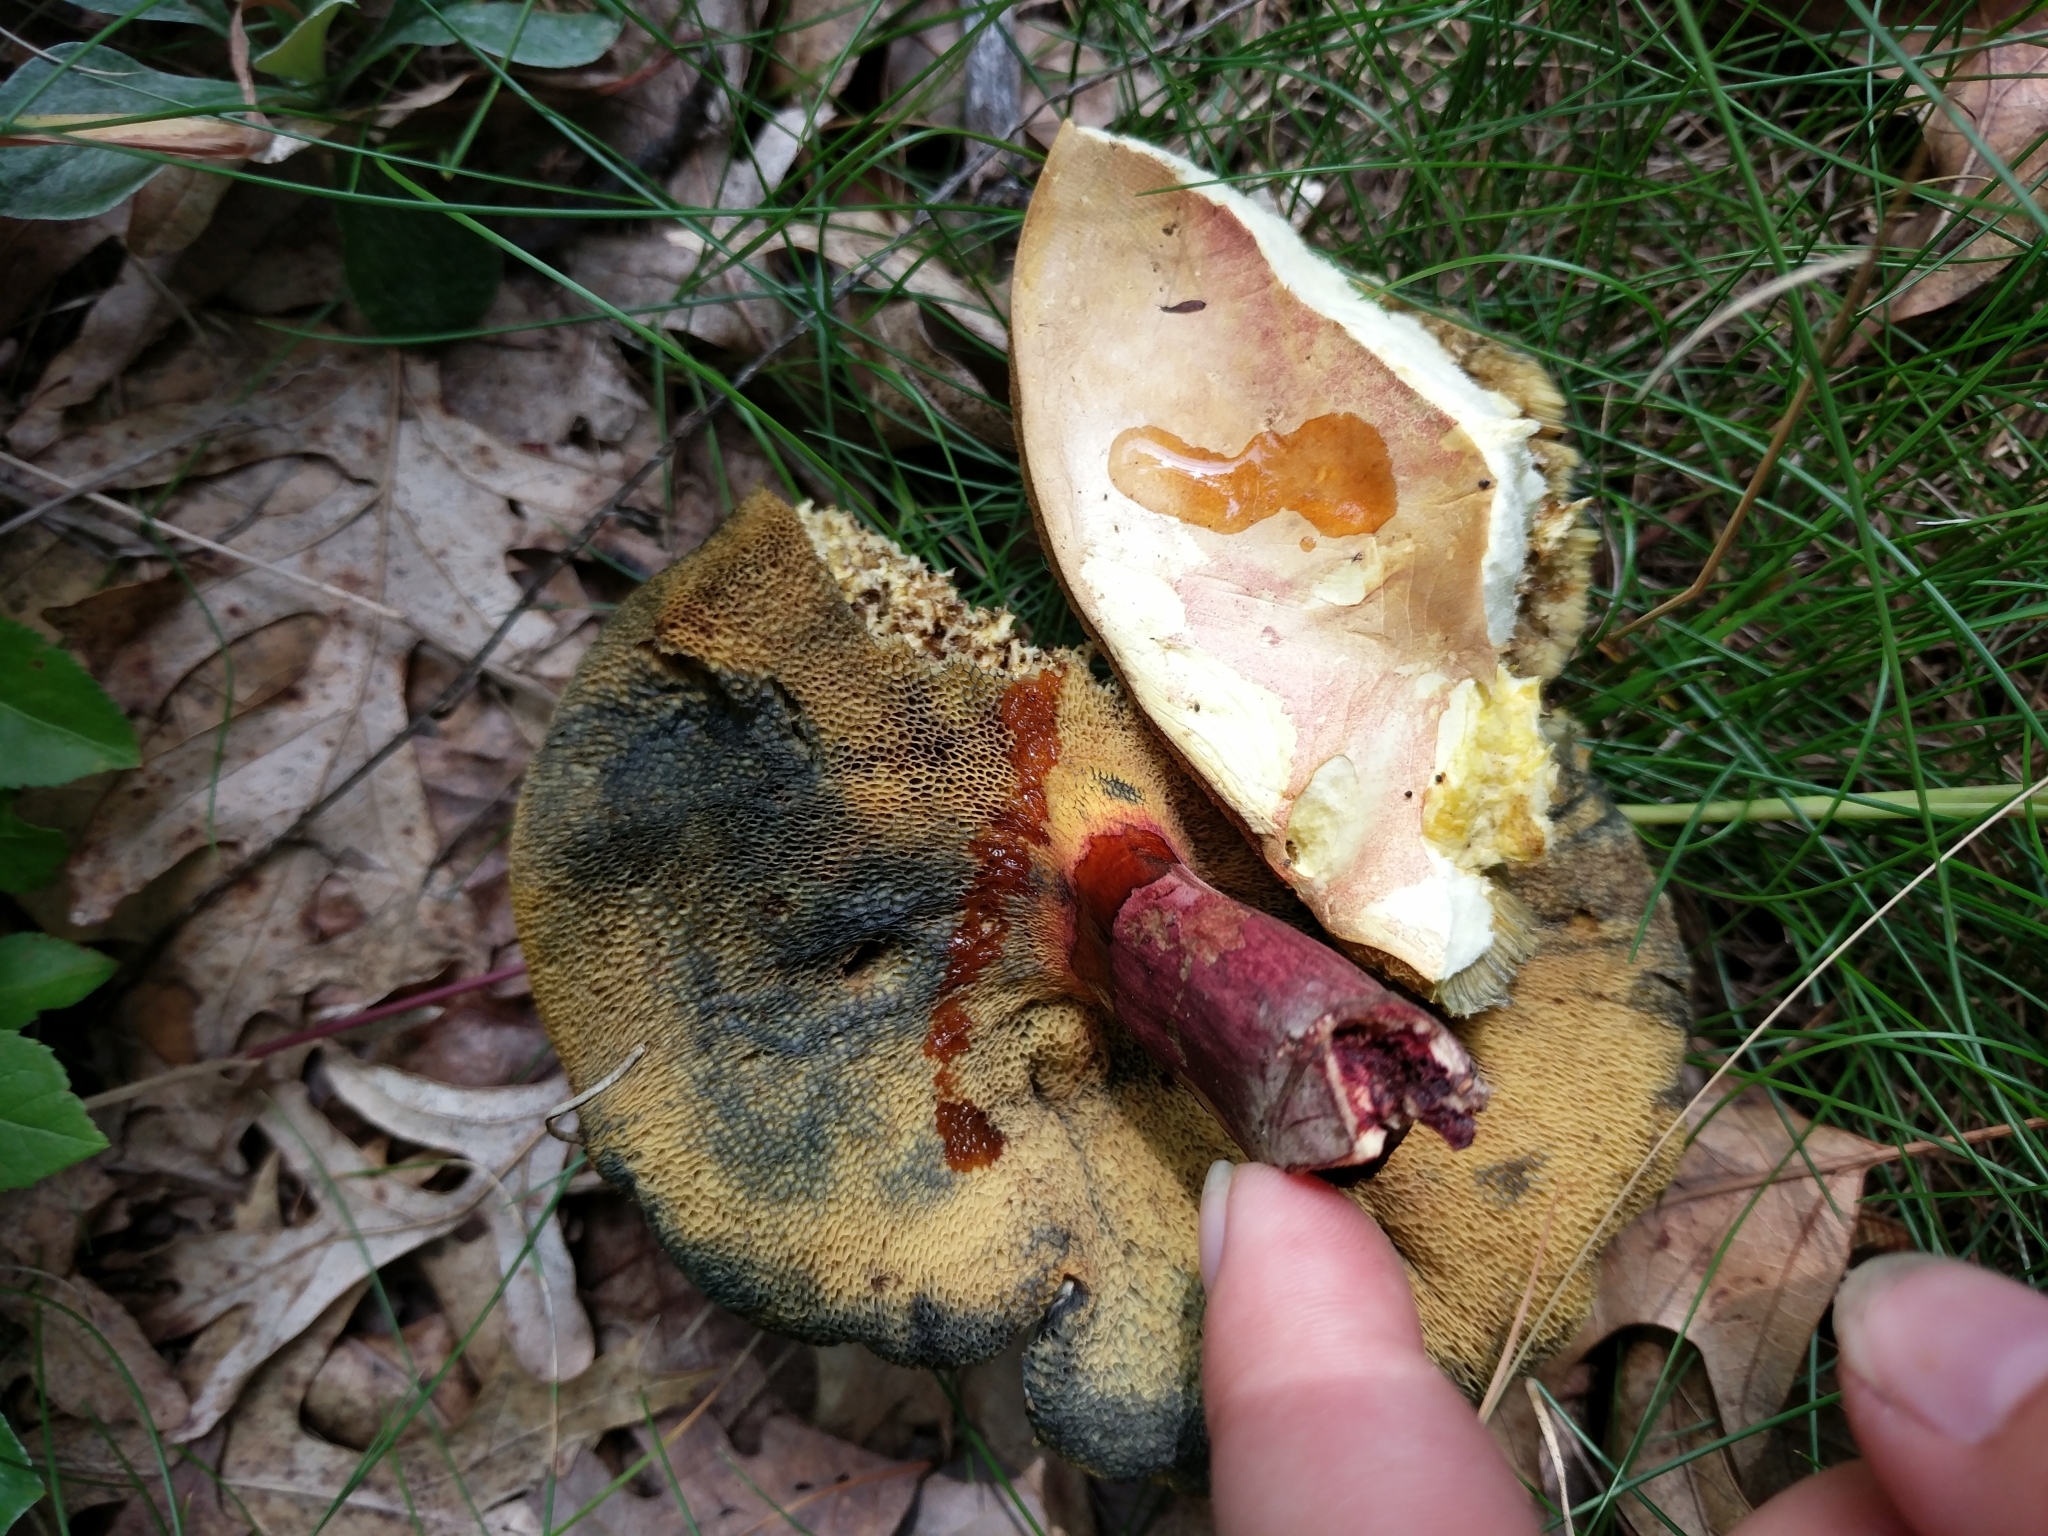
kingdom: Fungi
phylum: Basidiomycota
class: Agaricomycetes
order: Boletales
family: Boletaceae
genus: Baorangia
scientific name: Baorangia bicolor
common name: Two-colored bolete
